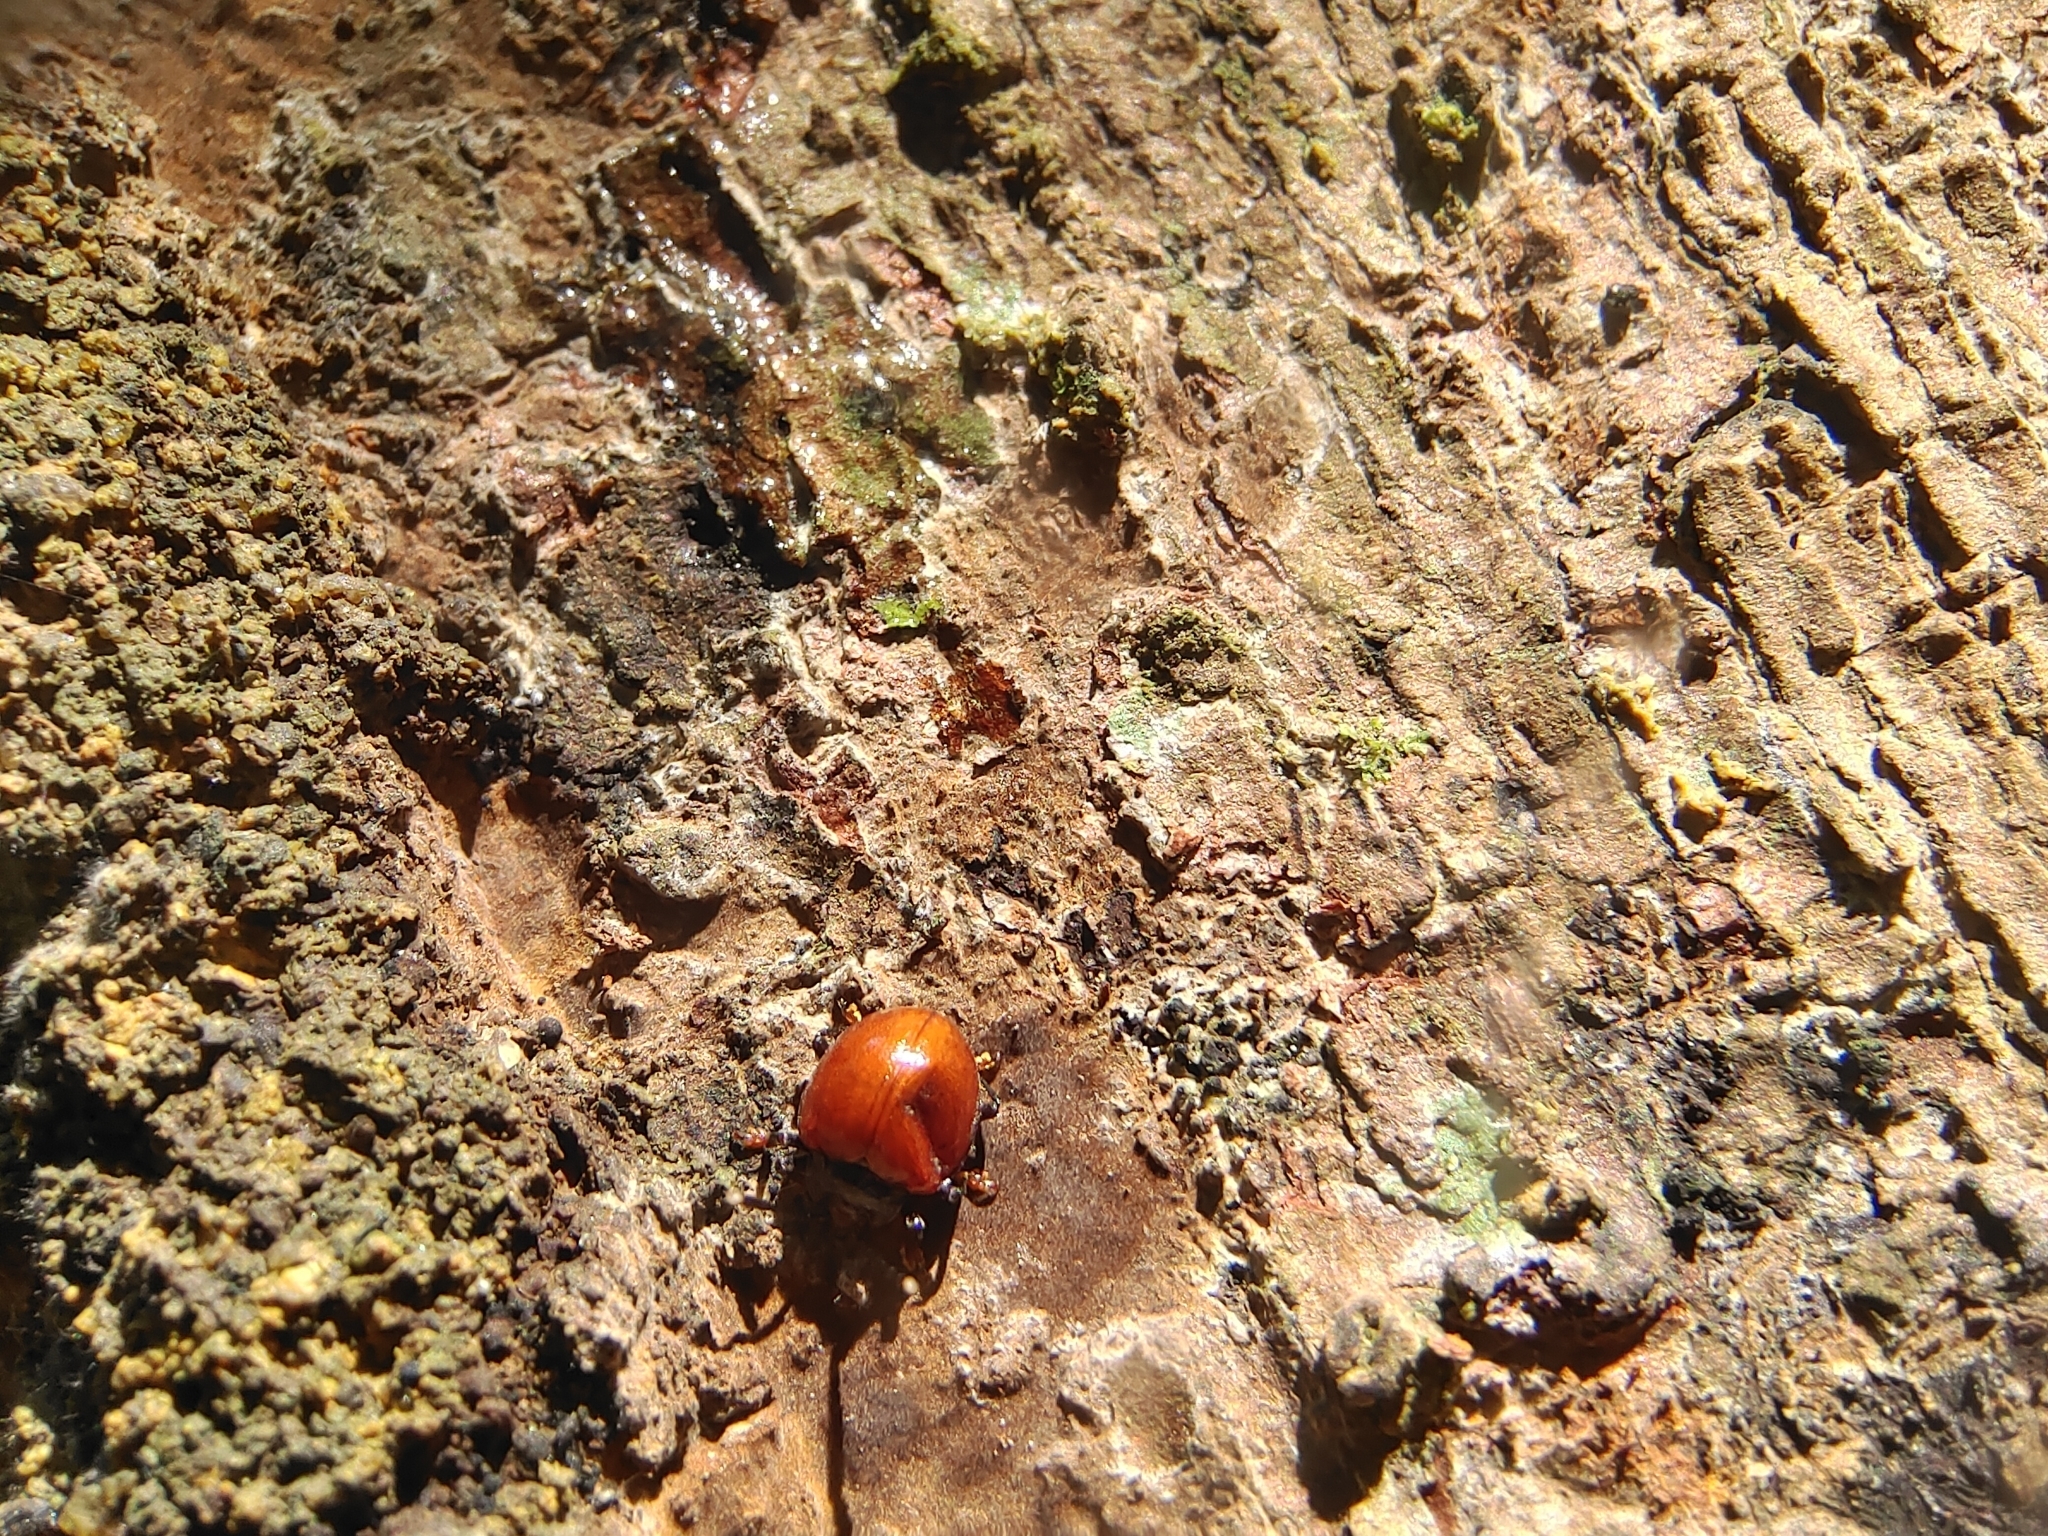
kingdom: Animalia
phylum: Arthropoda
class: Insecta
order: Coleoptera
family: Endomychidae
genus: Meilichius
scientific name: Meilichius
